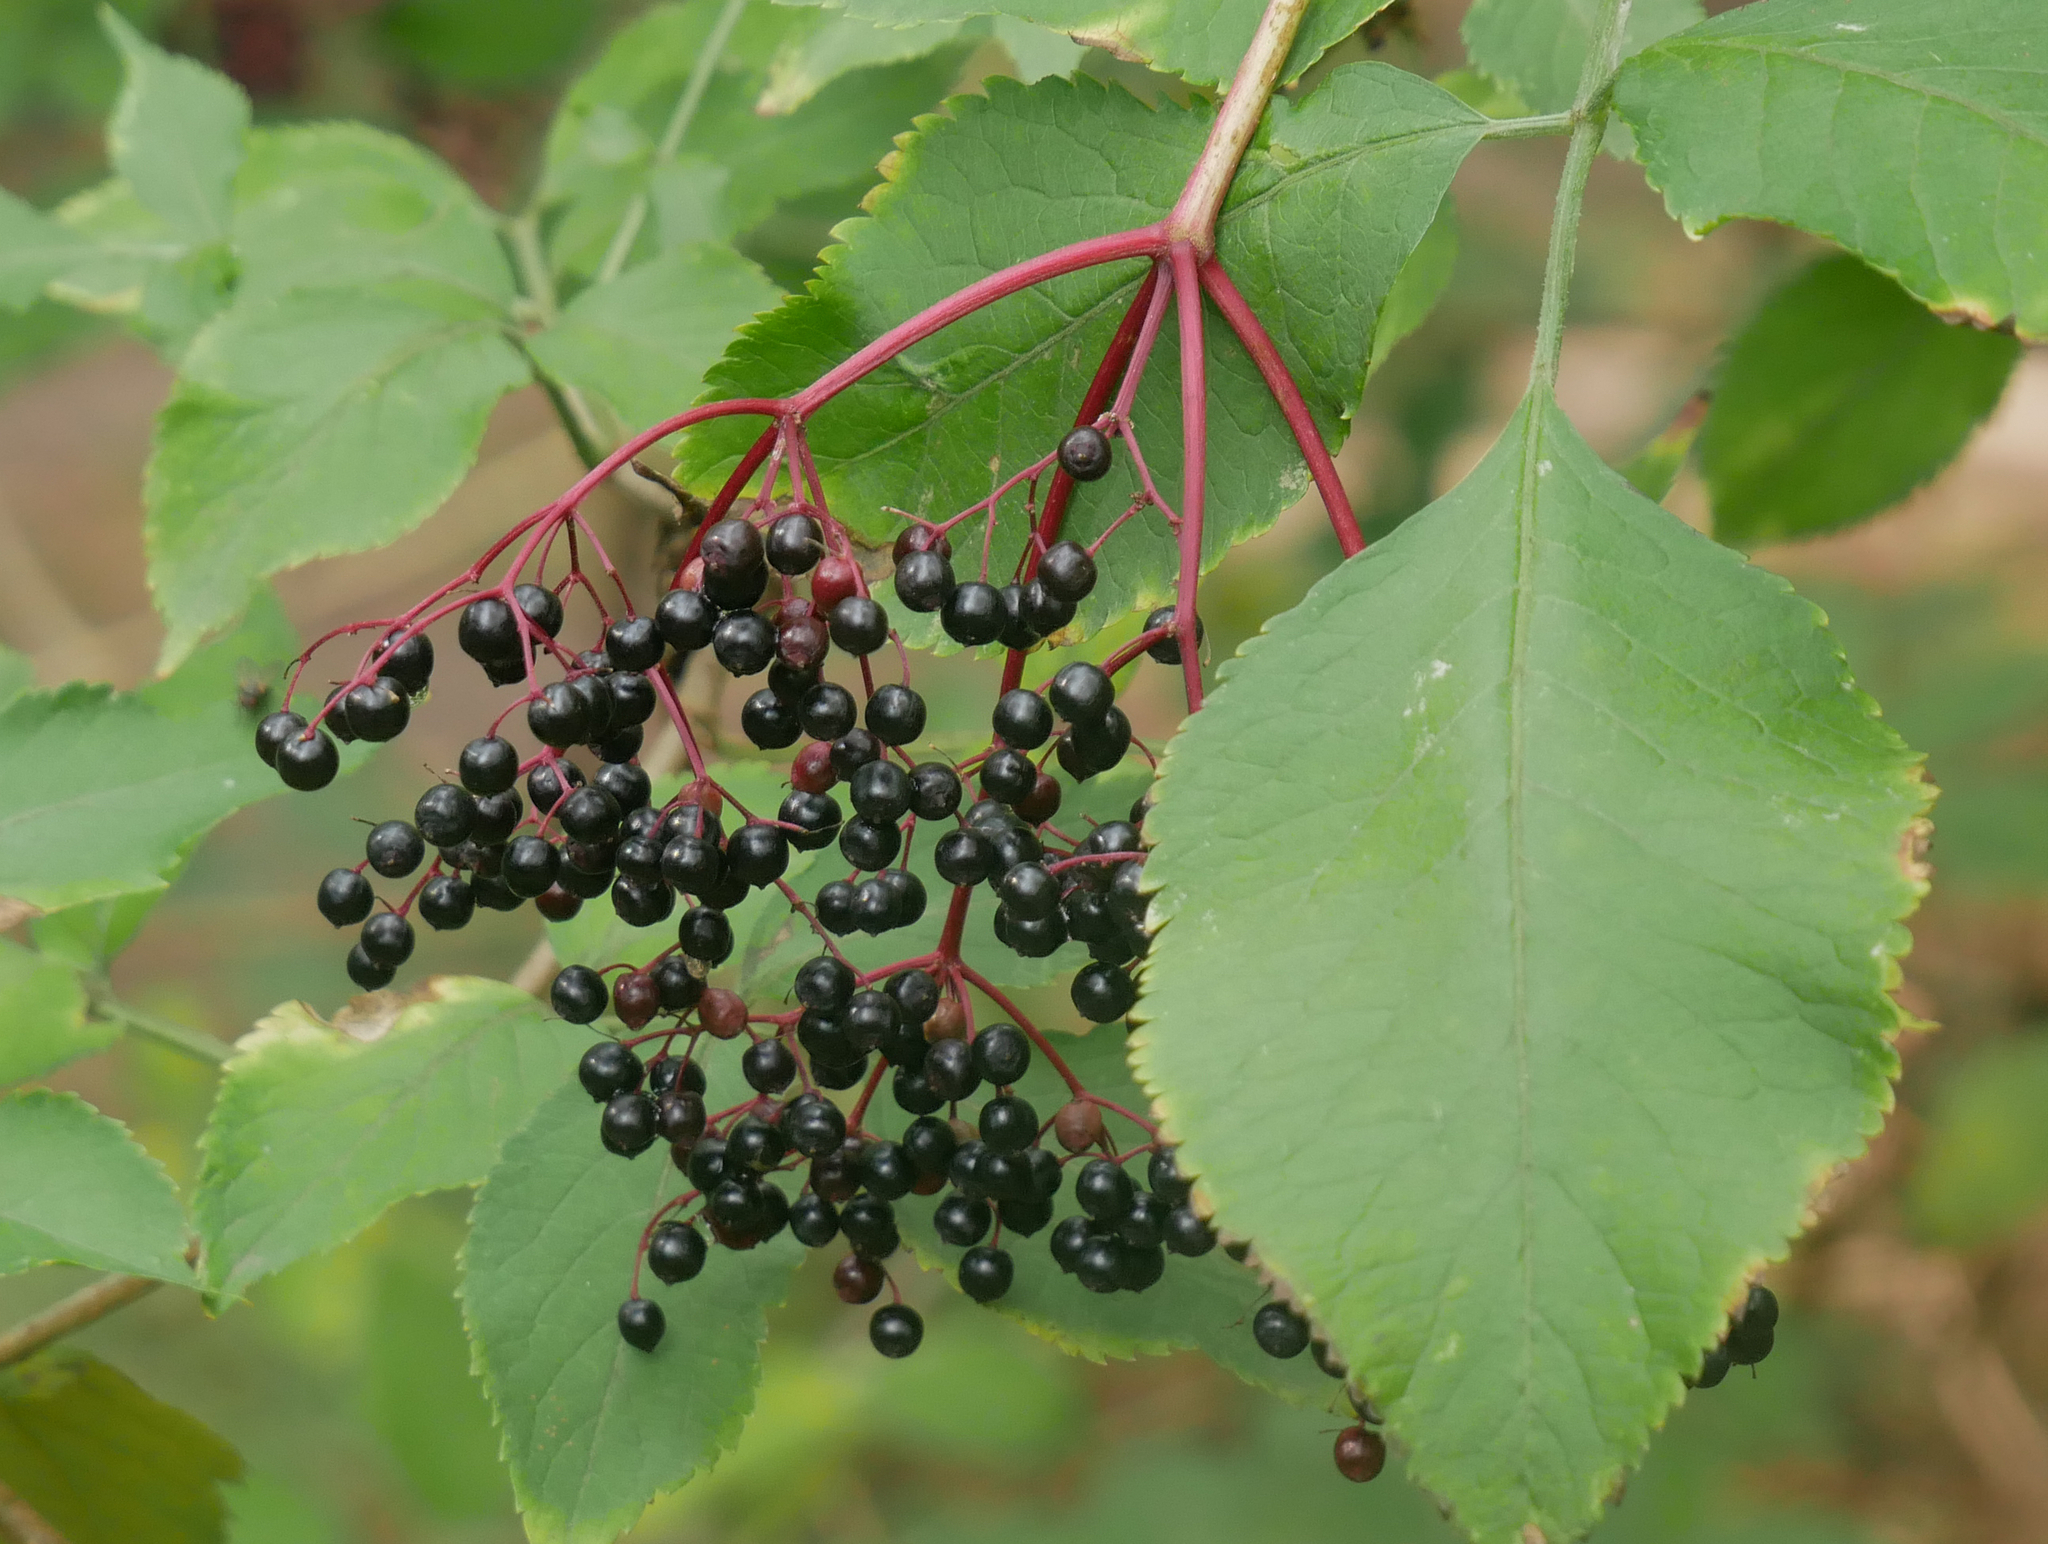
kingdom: Plantae
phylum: Tracheophyta
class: Magnoliopsida
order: Dipsacales
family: Viburnaceae
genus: Sambucus
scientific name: Sambucus nigra
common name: Elder
